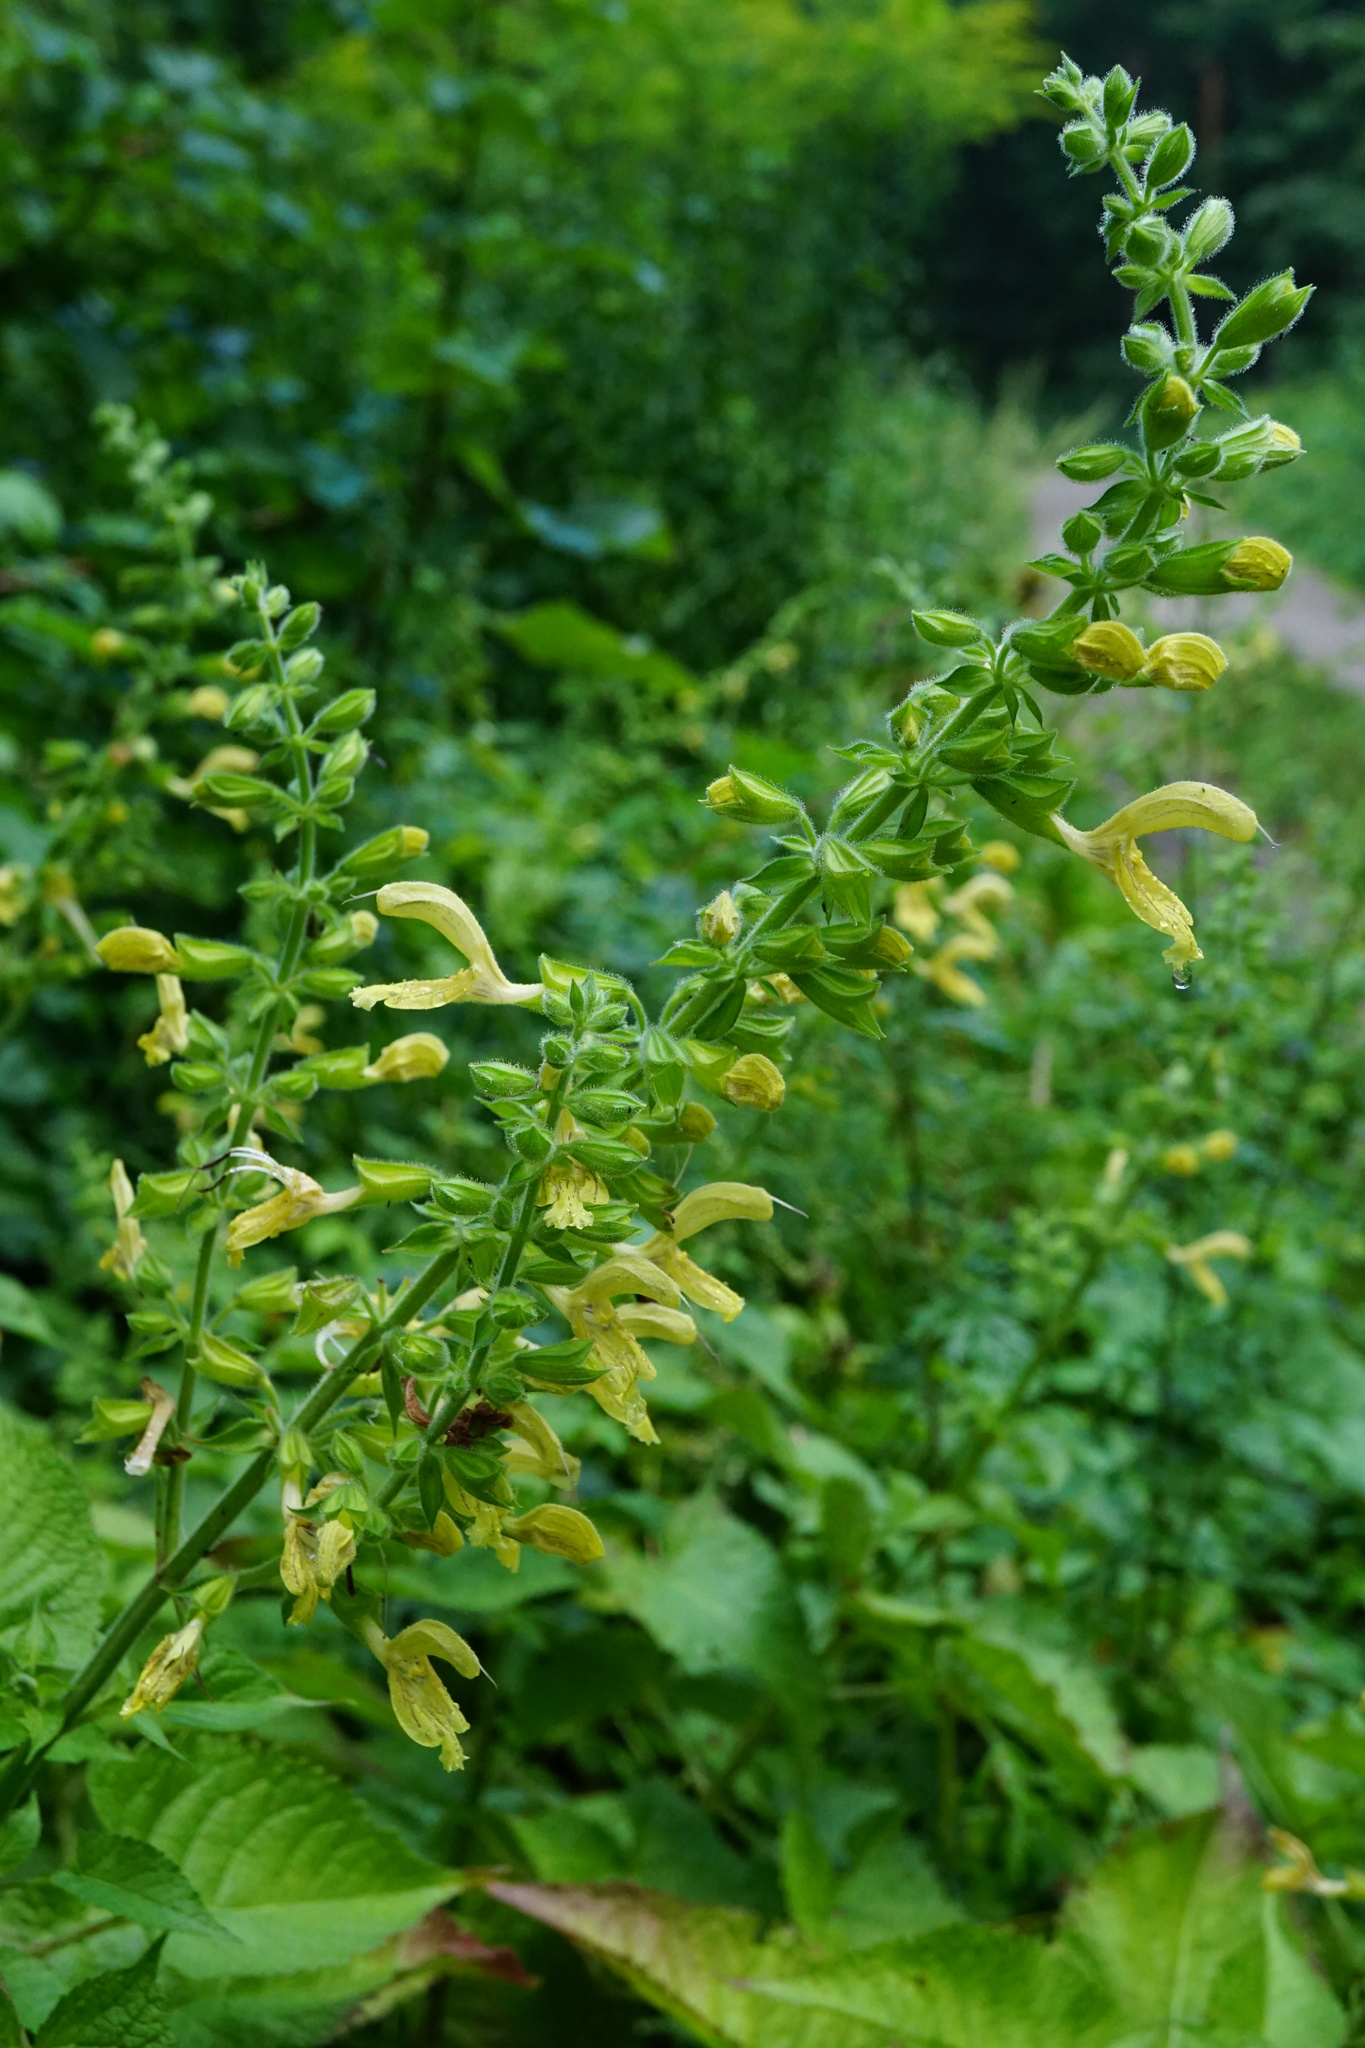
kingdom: Plantae
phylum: Tracheophyta
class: Magnoliopsida
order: Lamiales
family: Lamiaceae
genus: Salvia
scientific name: Salvia glutinosa
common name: Sticky clary
